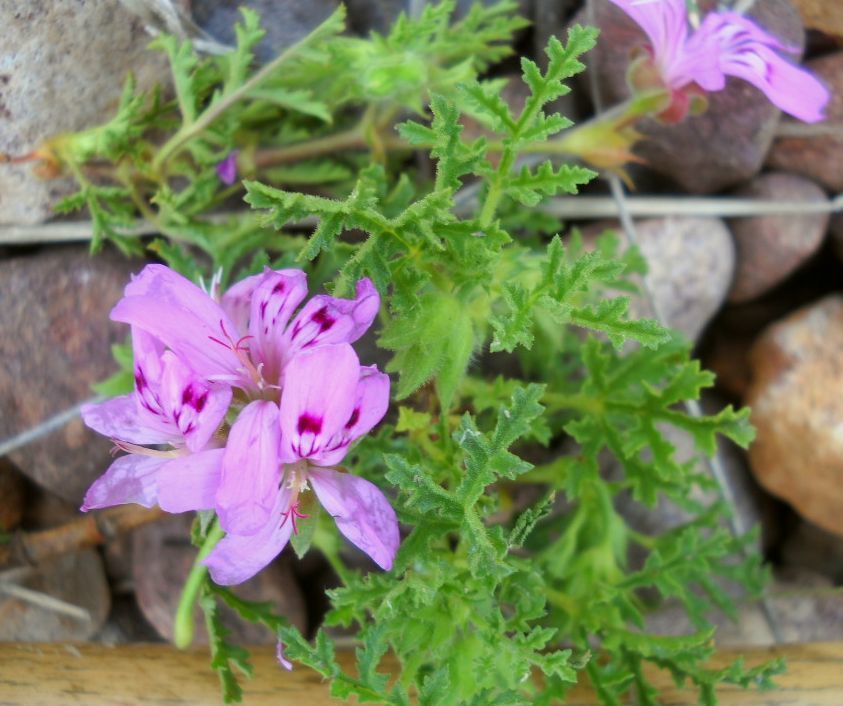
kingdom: Plantae
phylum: Tracheophyta
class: Magnoliopsida
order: Geraniales
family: Geraniaceae
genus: Pelargonium
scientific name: Pelargonium denticulatum
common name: Pine geranium
